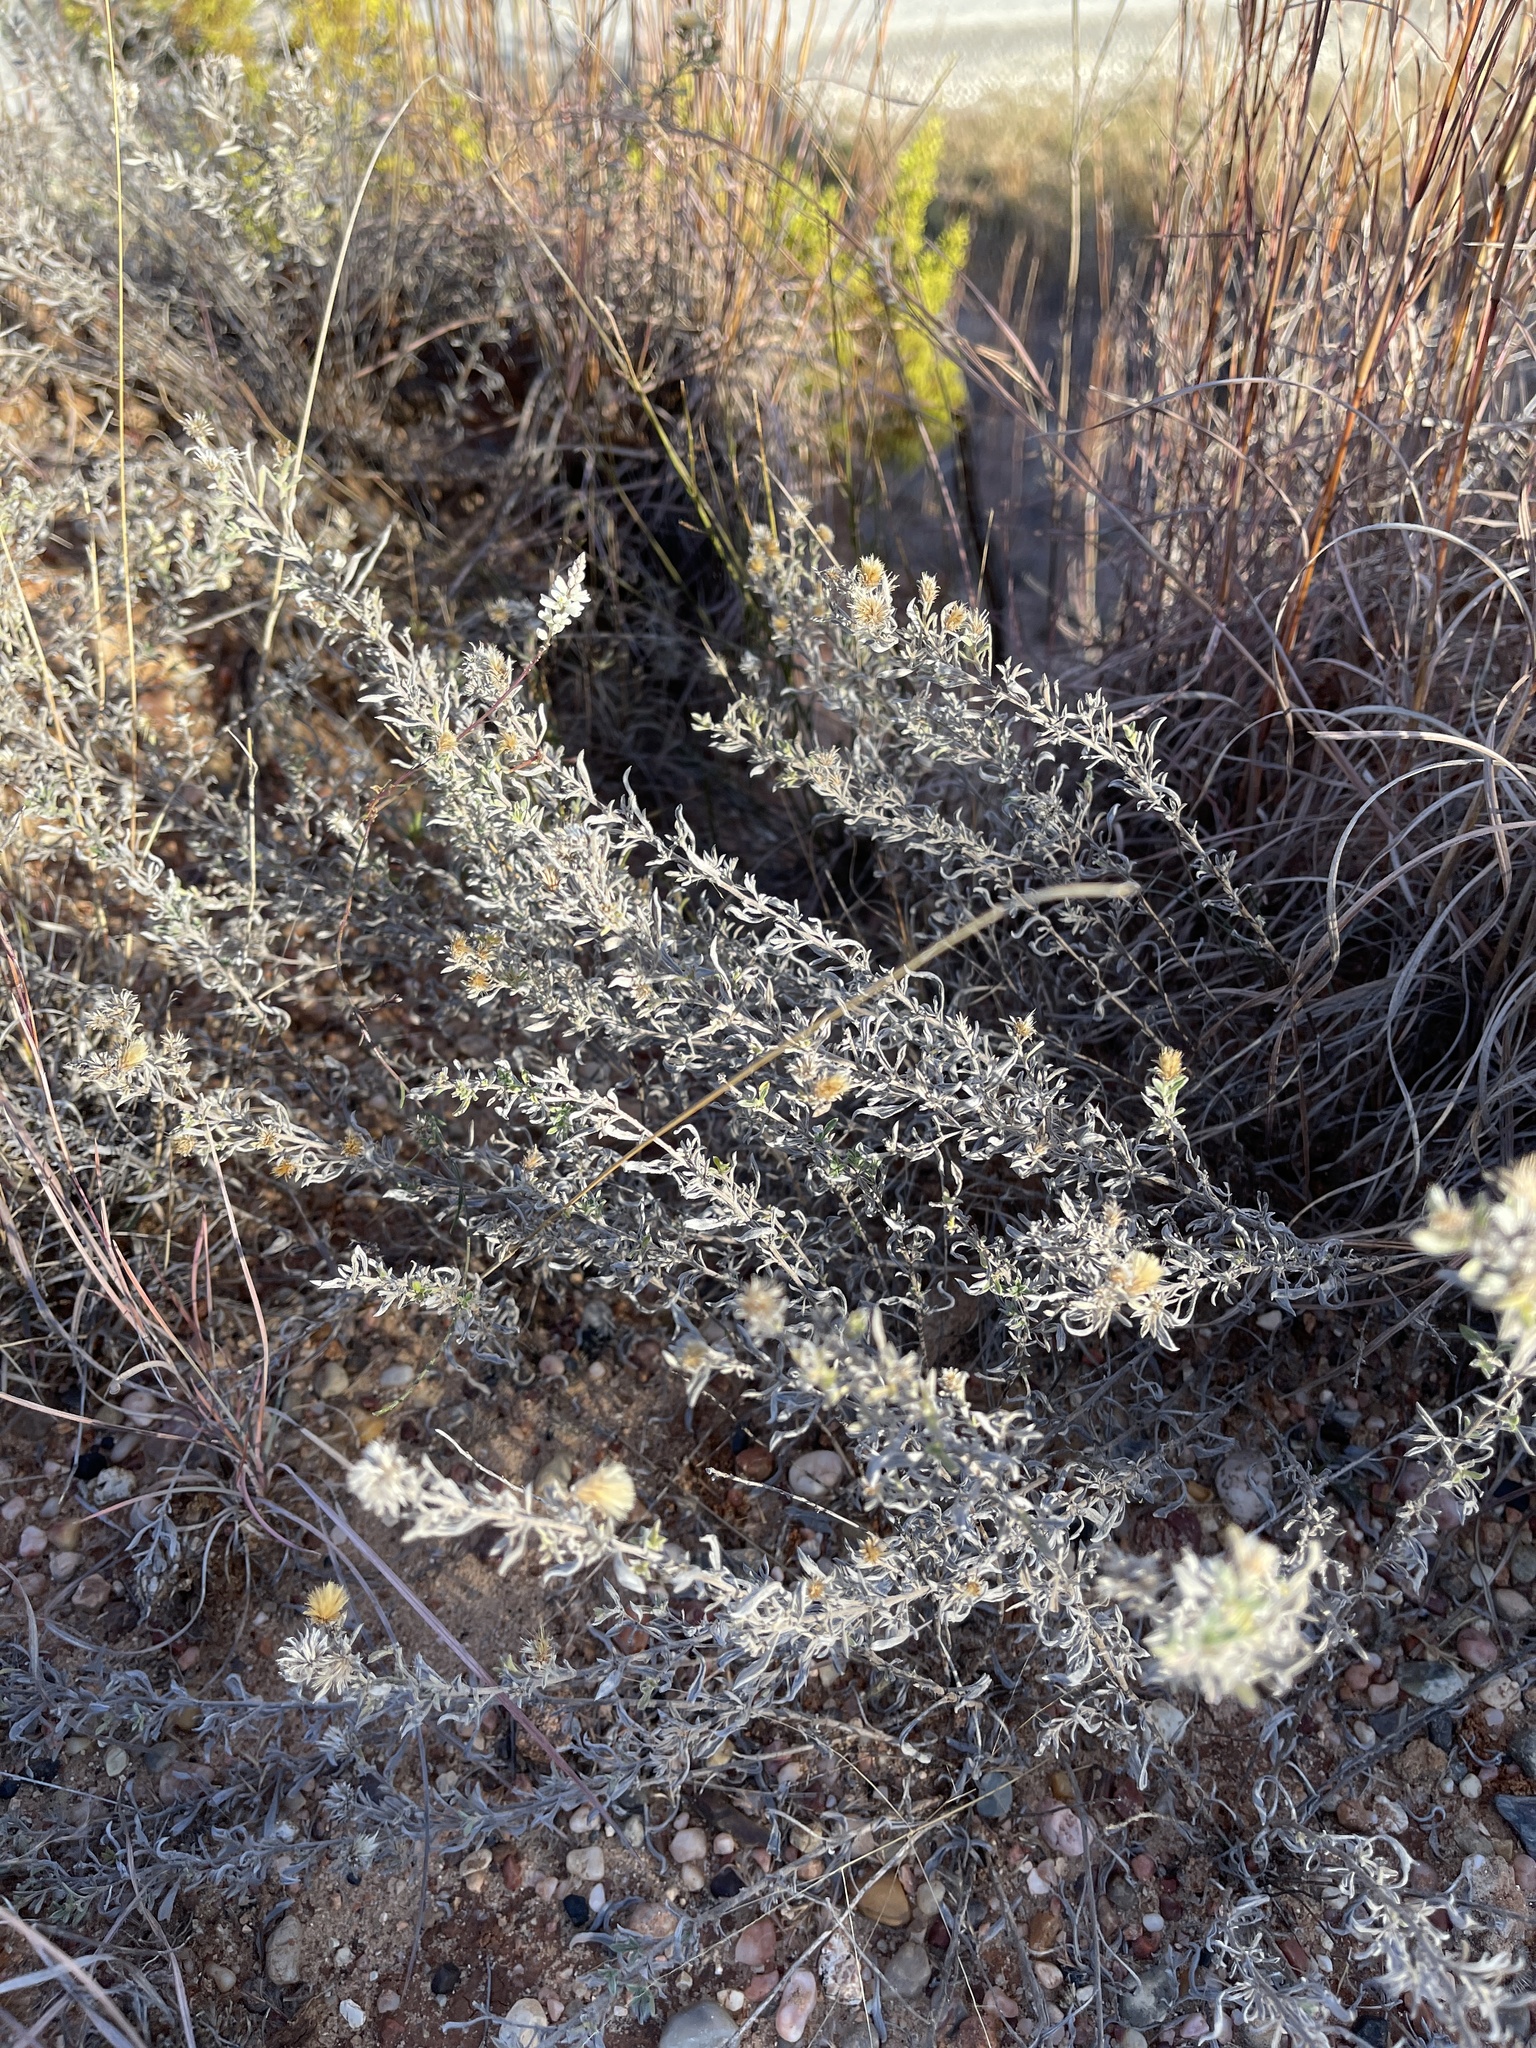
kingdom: Plantae
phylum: Tracheophyta
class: Magnoliopsida
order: Asterales
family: Asteraceae
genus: Heterotheca
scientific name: Heterotheca canescens
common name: Hoary golden-aster
